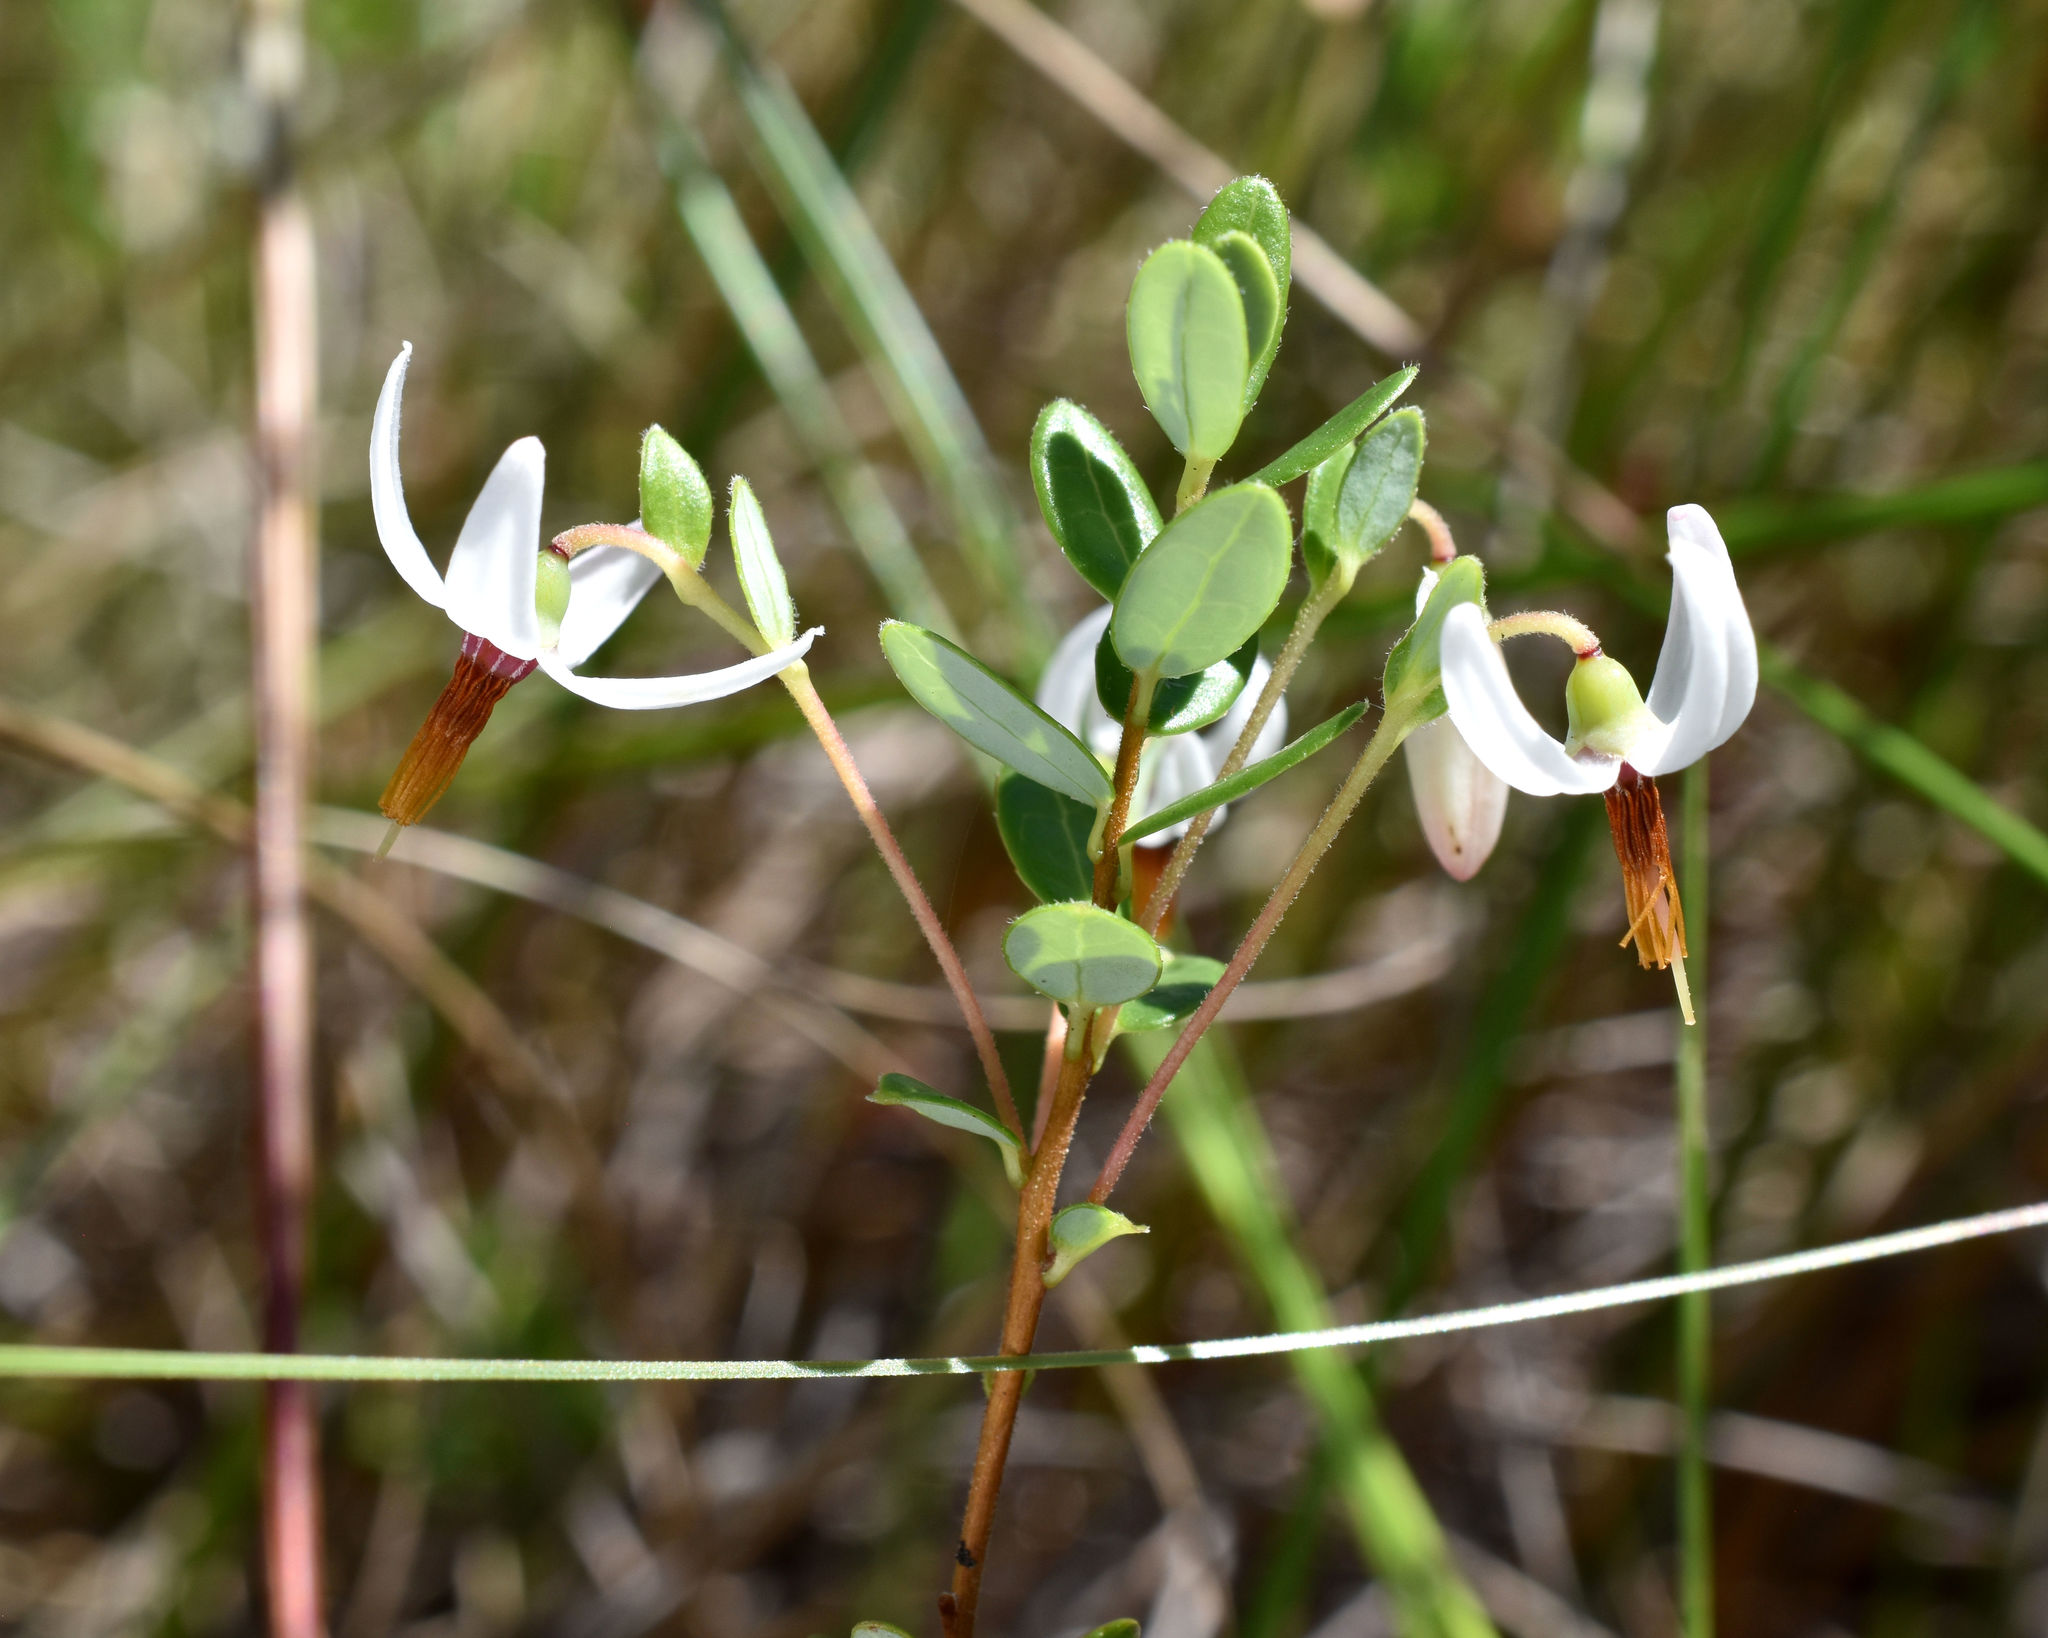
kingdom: Plantae
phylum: Tracheophyta
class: Magnoliopsida
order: Ericales
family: Ericaceae
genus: Vaccinium
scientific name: Vaccinium macrocarpon
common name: American cranberry
